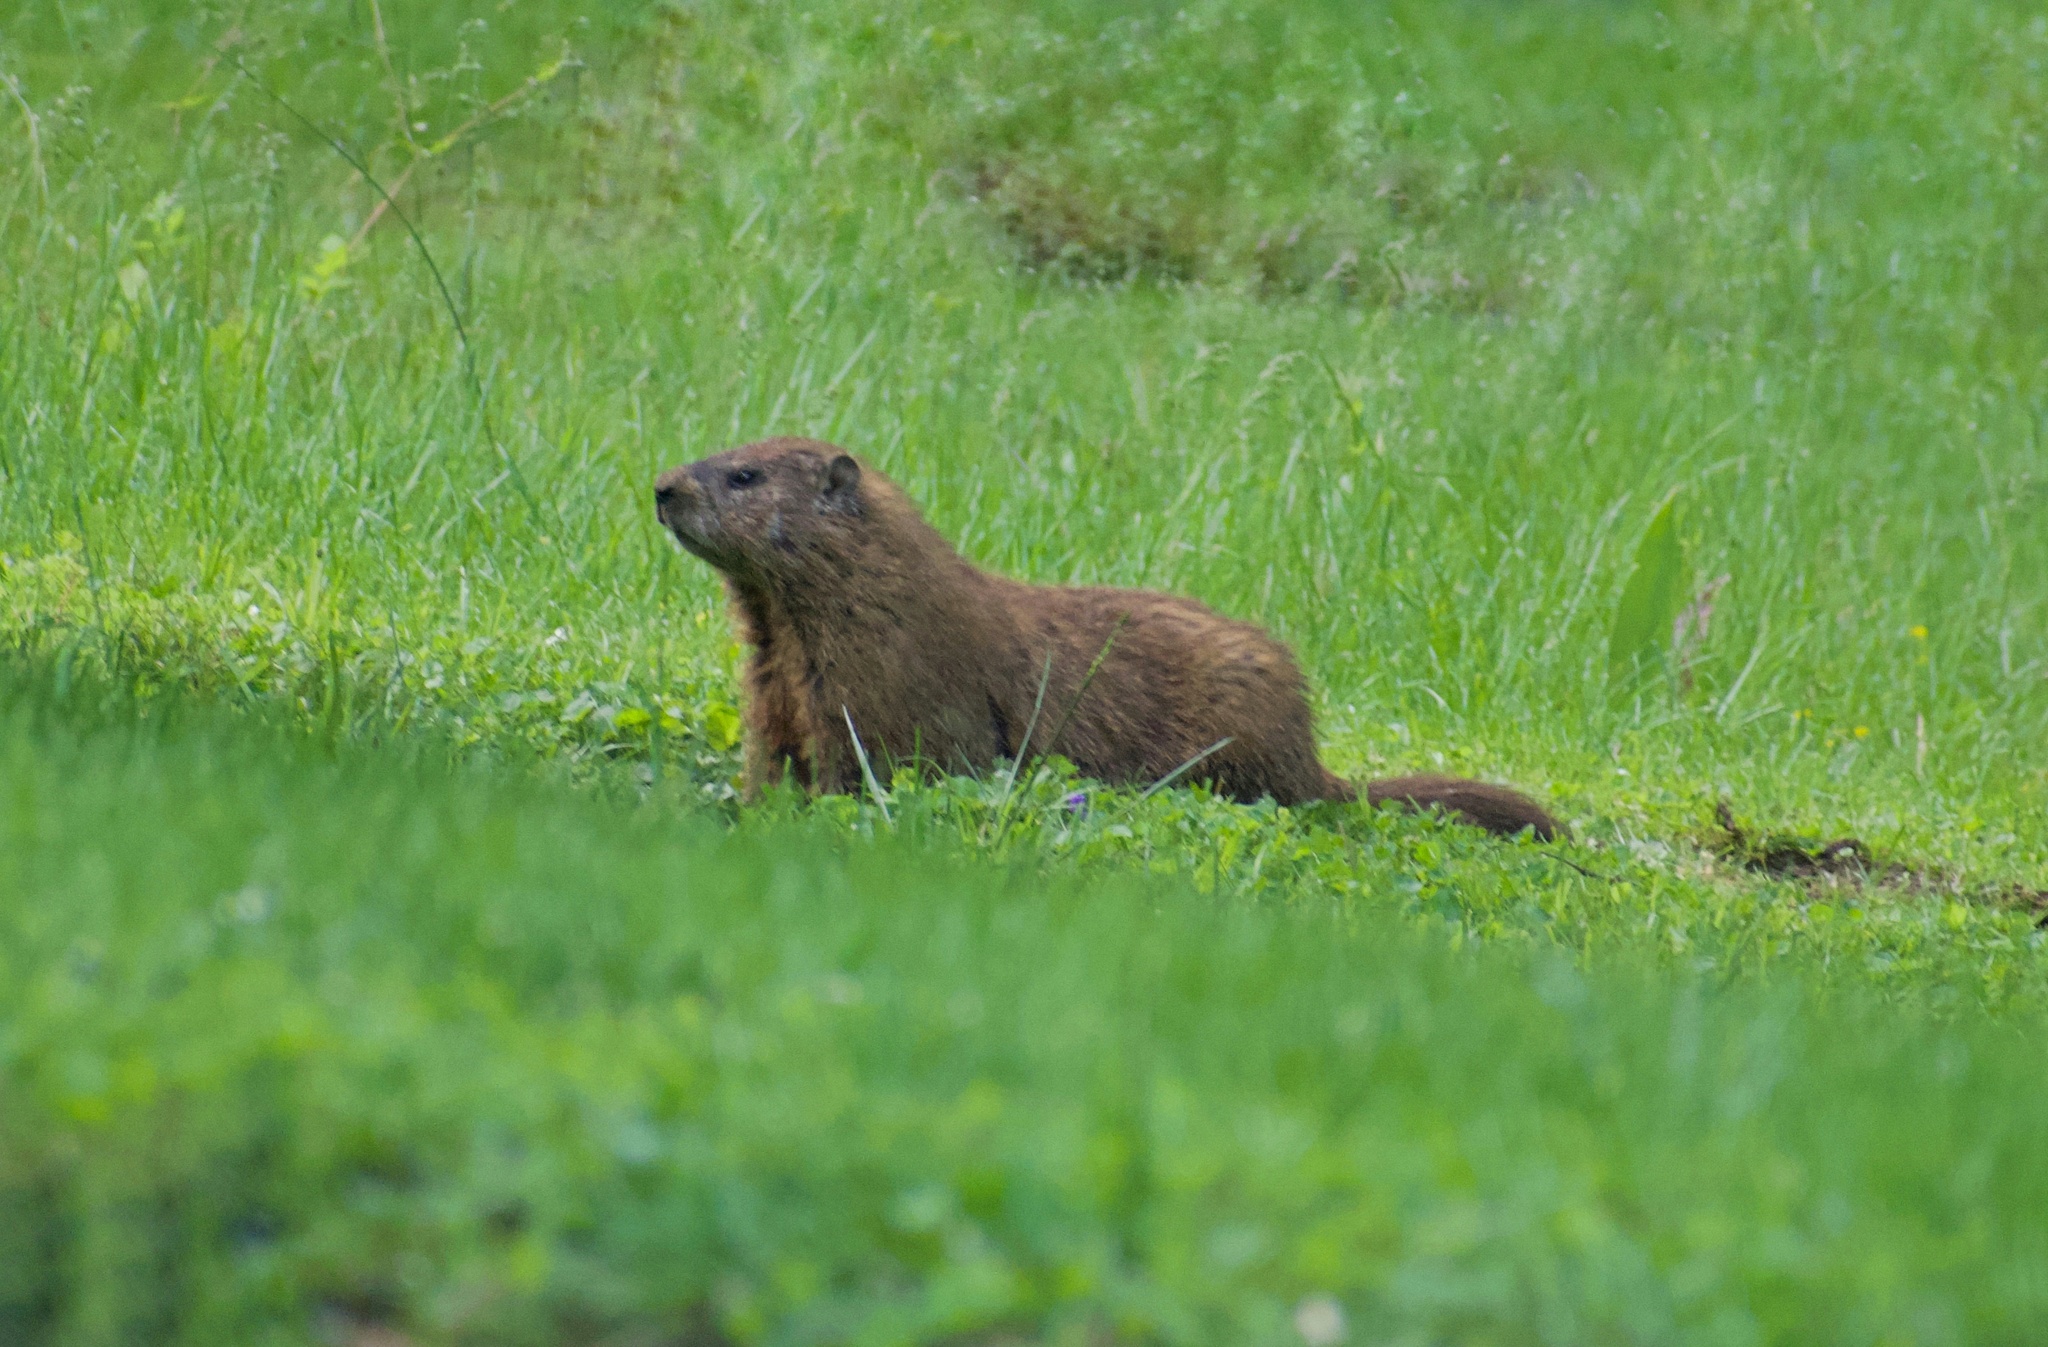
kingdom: Animalia
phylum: Chordata
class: Mammalia
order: Rodentia
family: Sciuridae
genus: Marmota
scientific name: Marmota monax
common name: Groundhog
